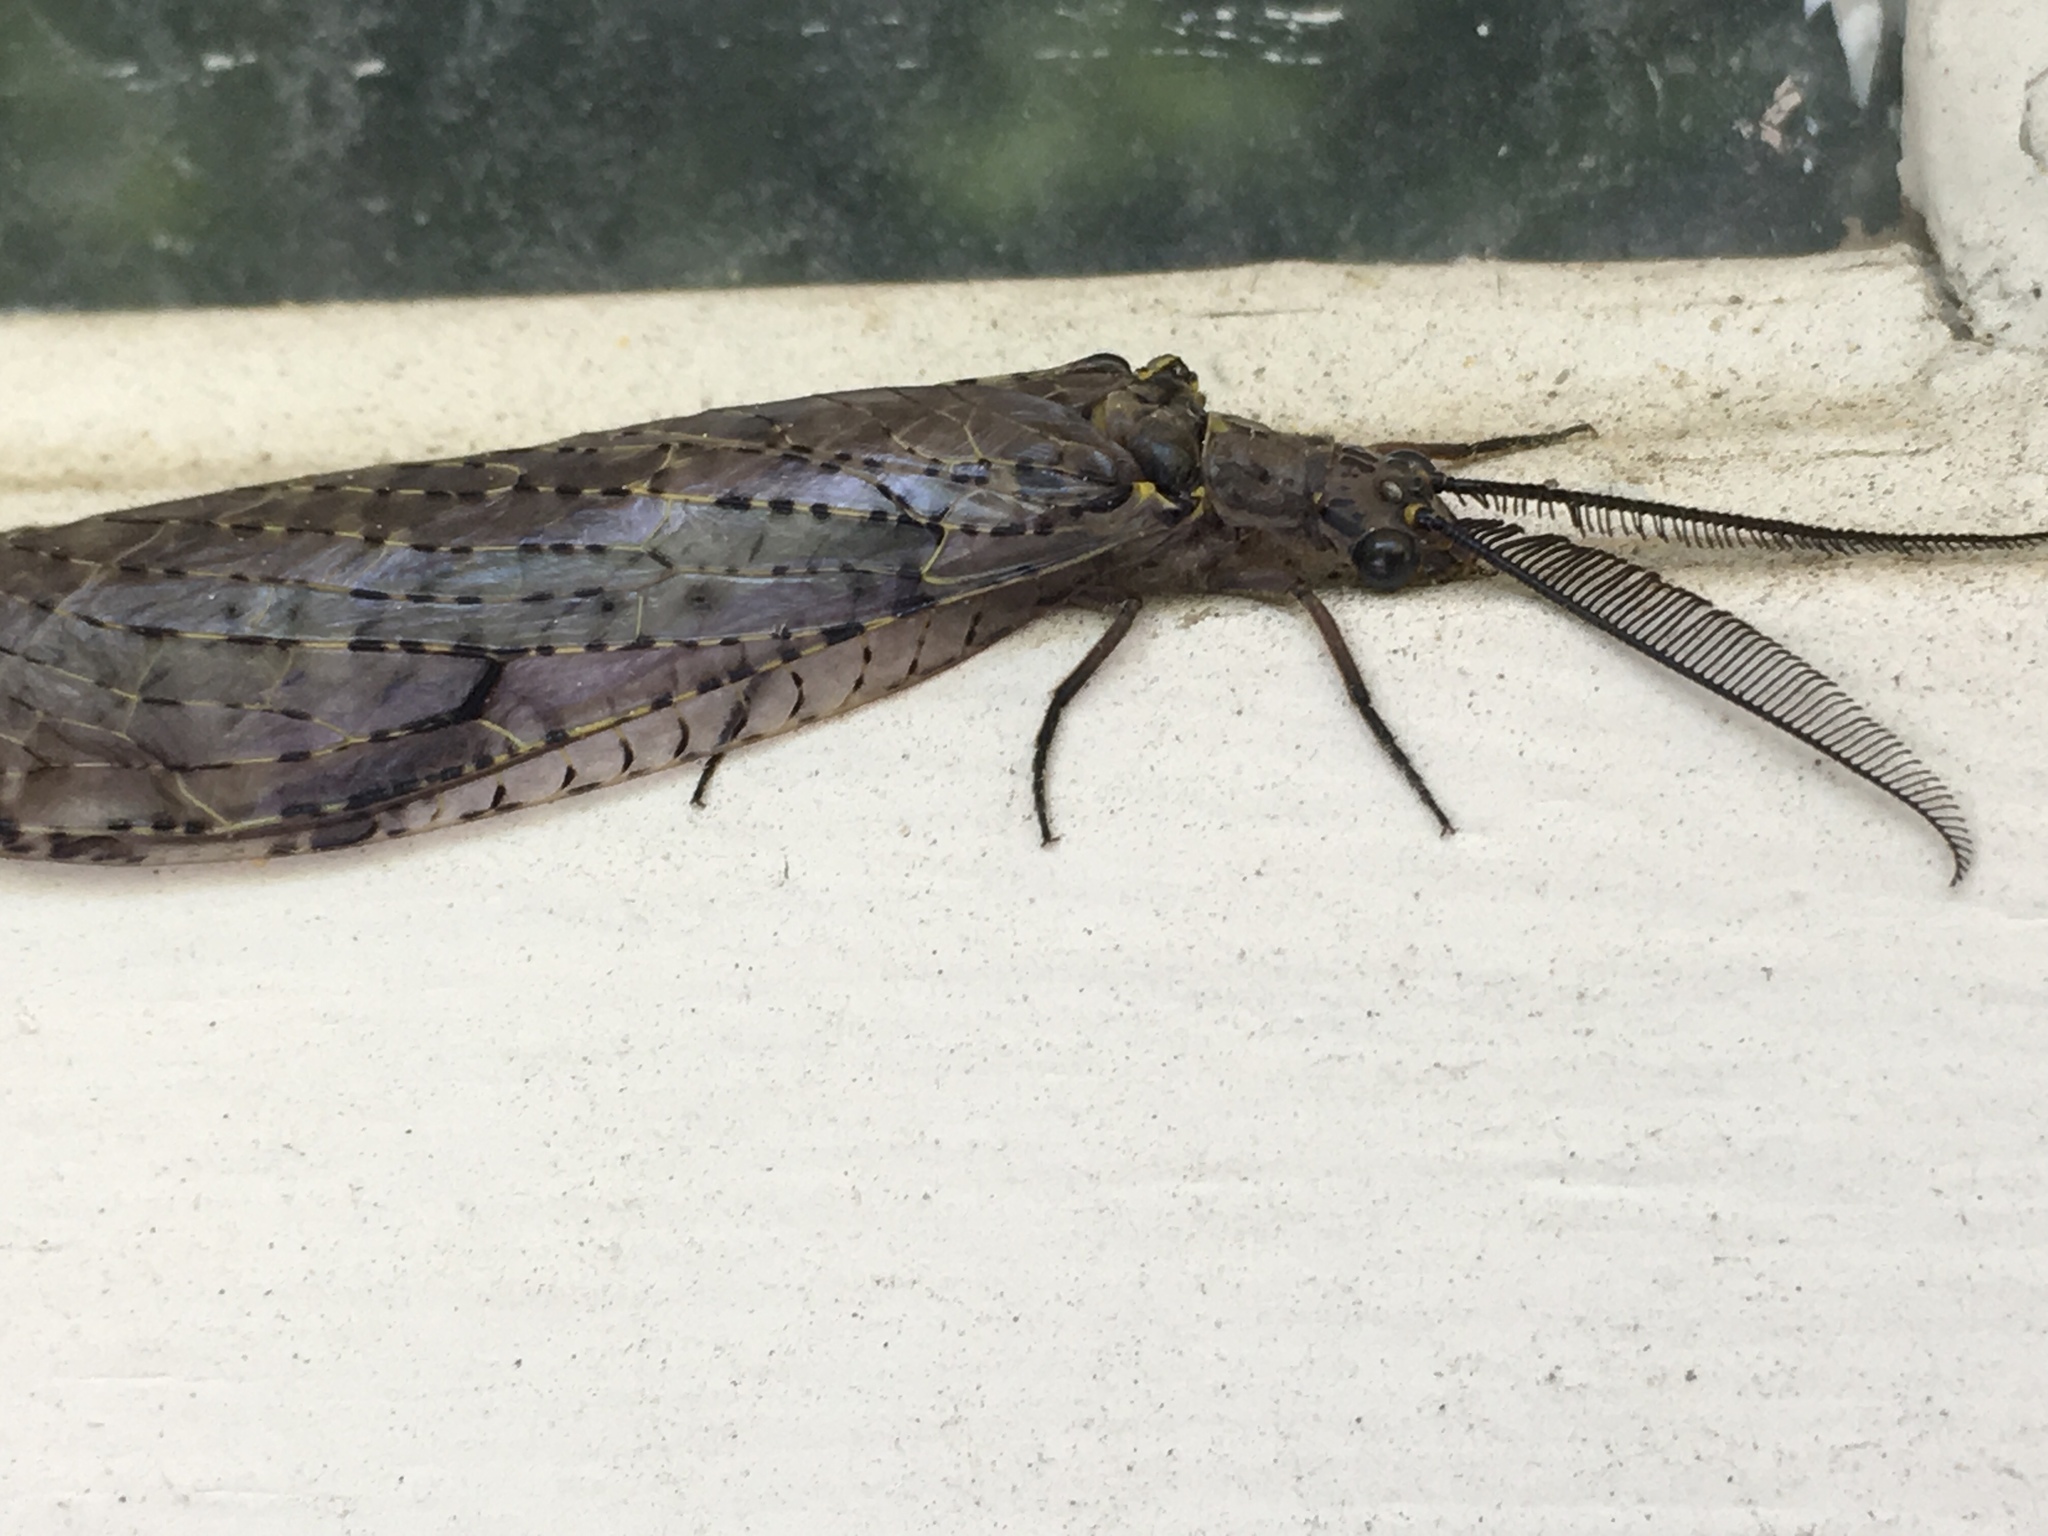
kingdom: Animalia
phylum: Arthropoda
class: Insecta
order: Megaloptera
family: Corydalidae
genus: Chauliodes
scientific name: Chauliodes rastricornis
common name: Spring fishfly
